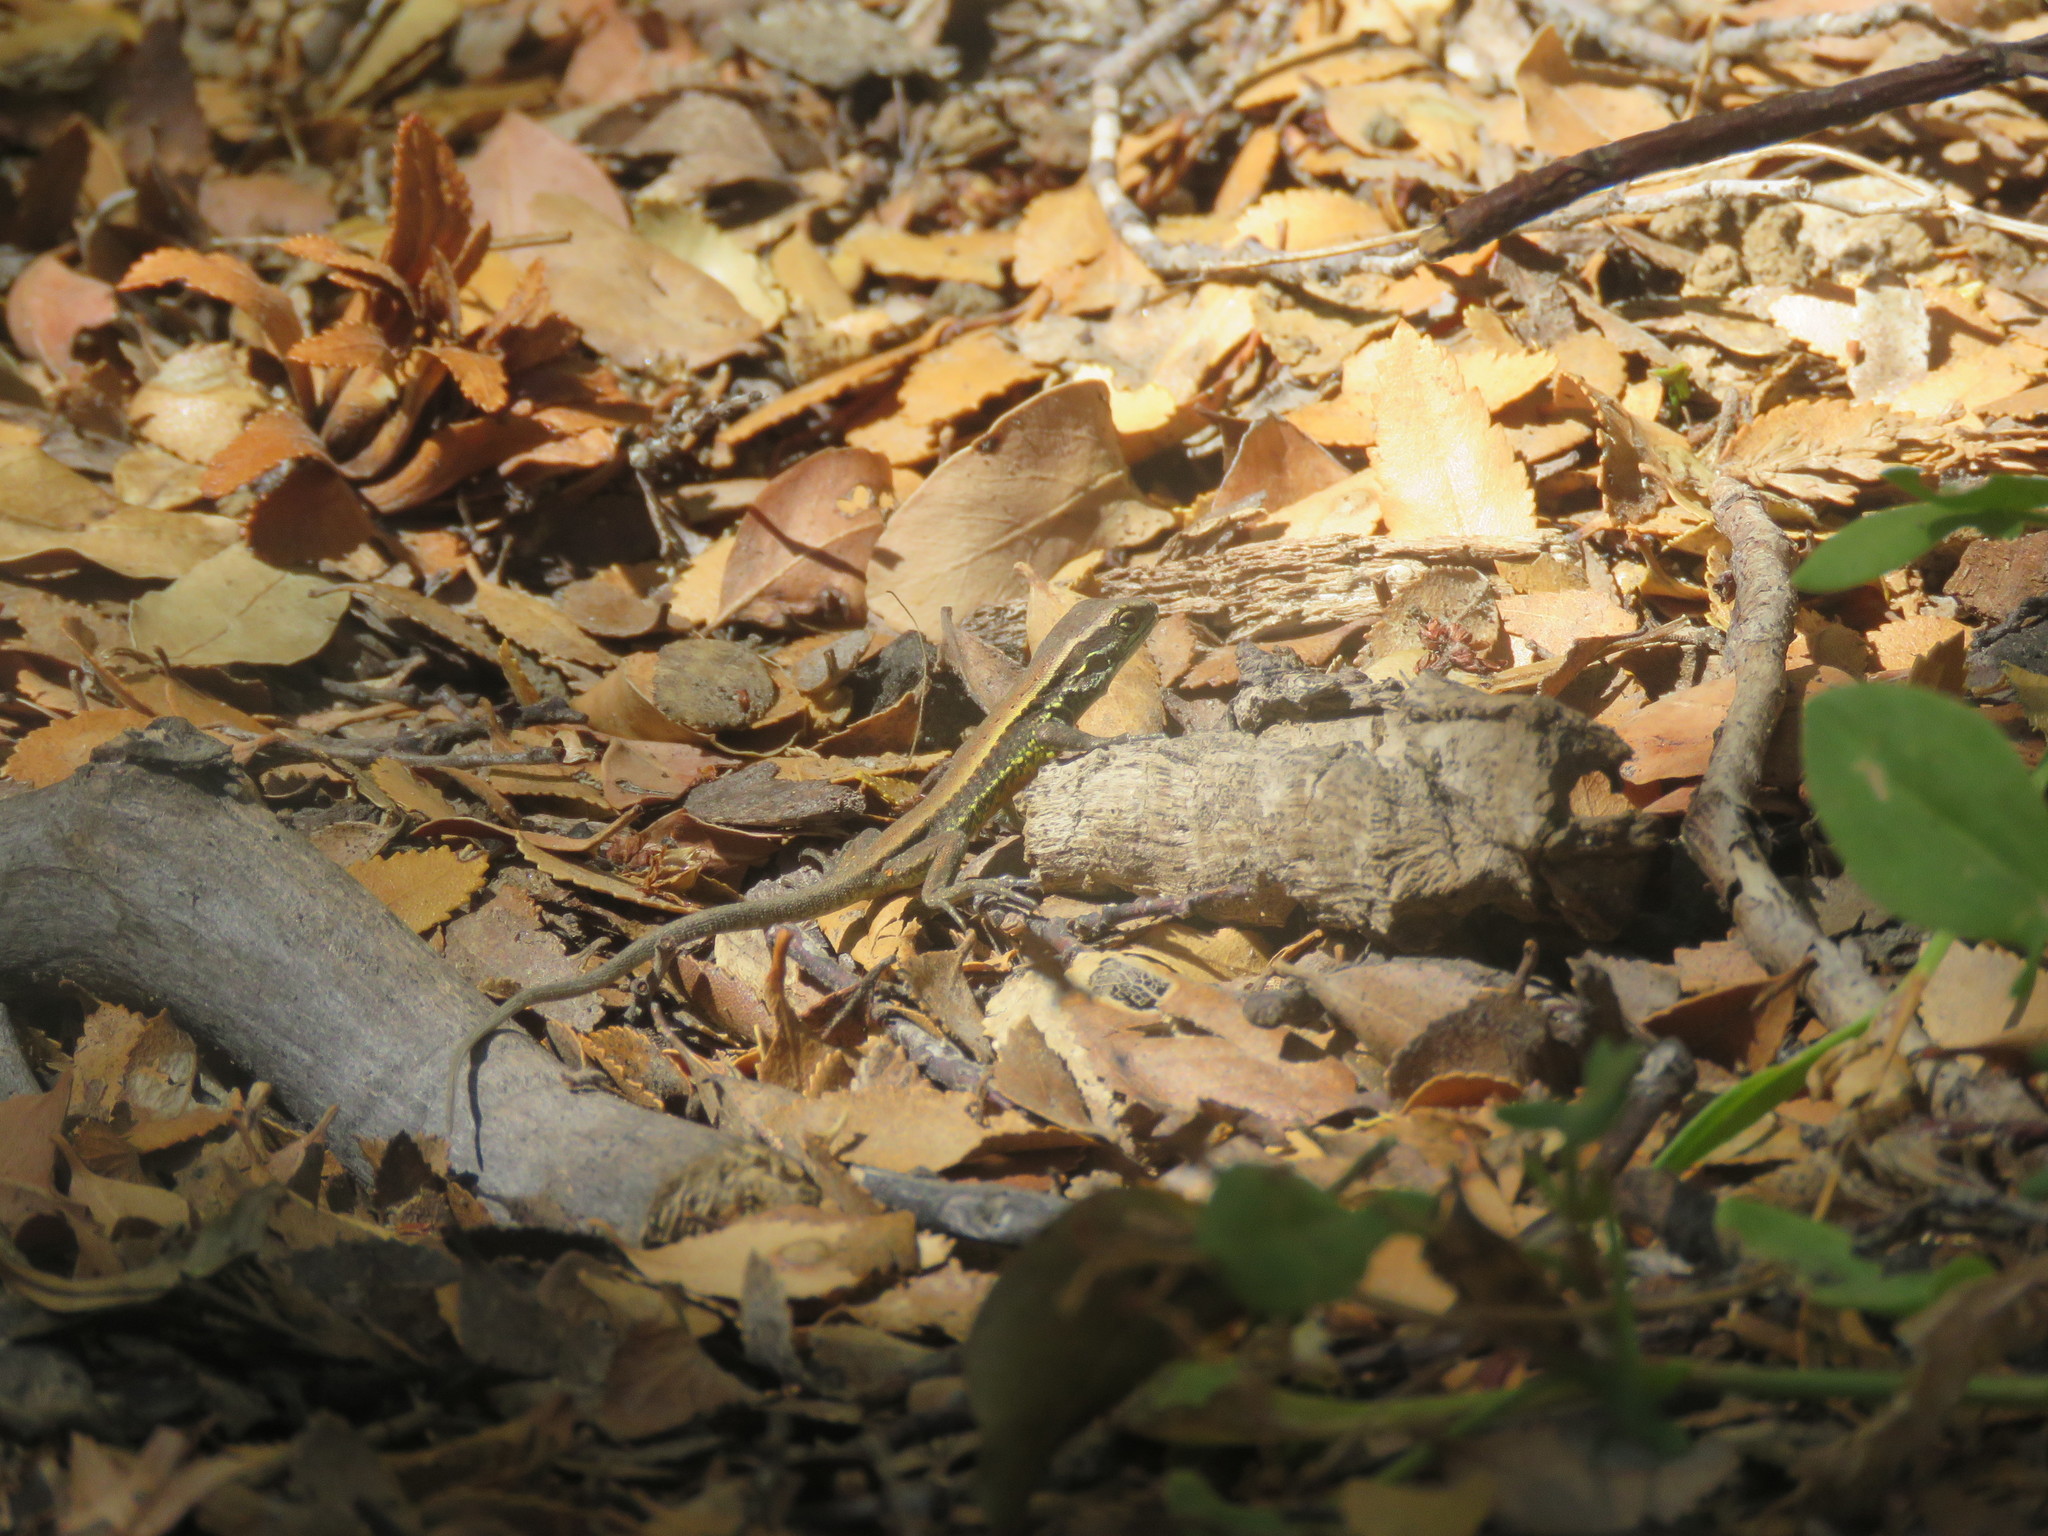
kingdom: Animalia
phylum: Chordata
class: Squamata
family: Liolaemidae
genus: Liolaemus
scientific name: Liolaemus pictus
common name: Painted tree iguana
